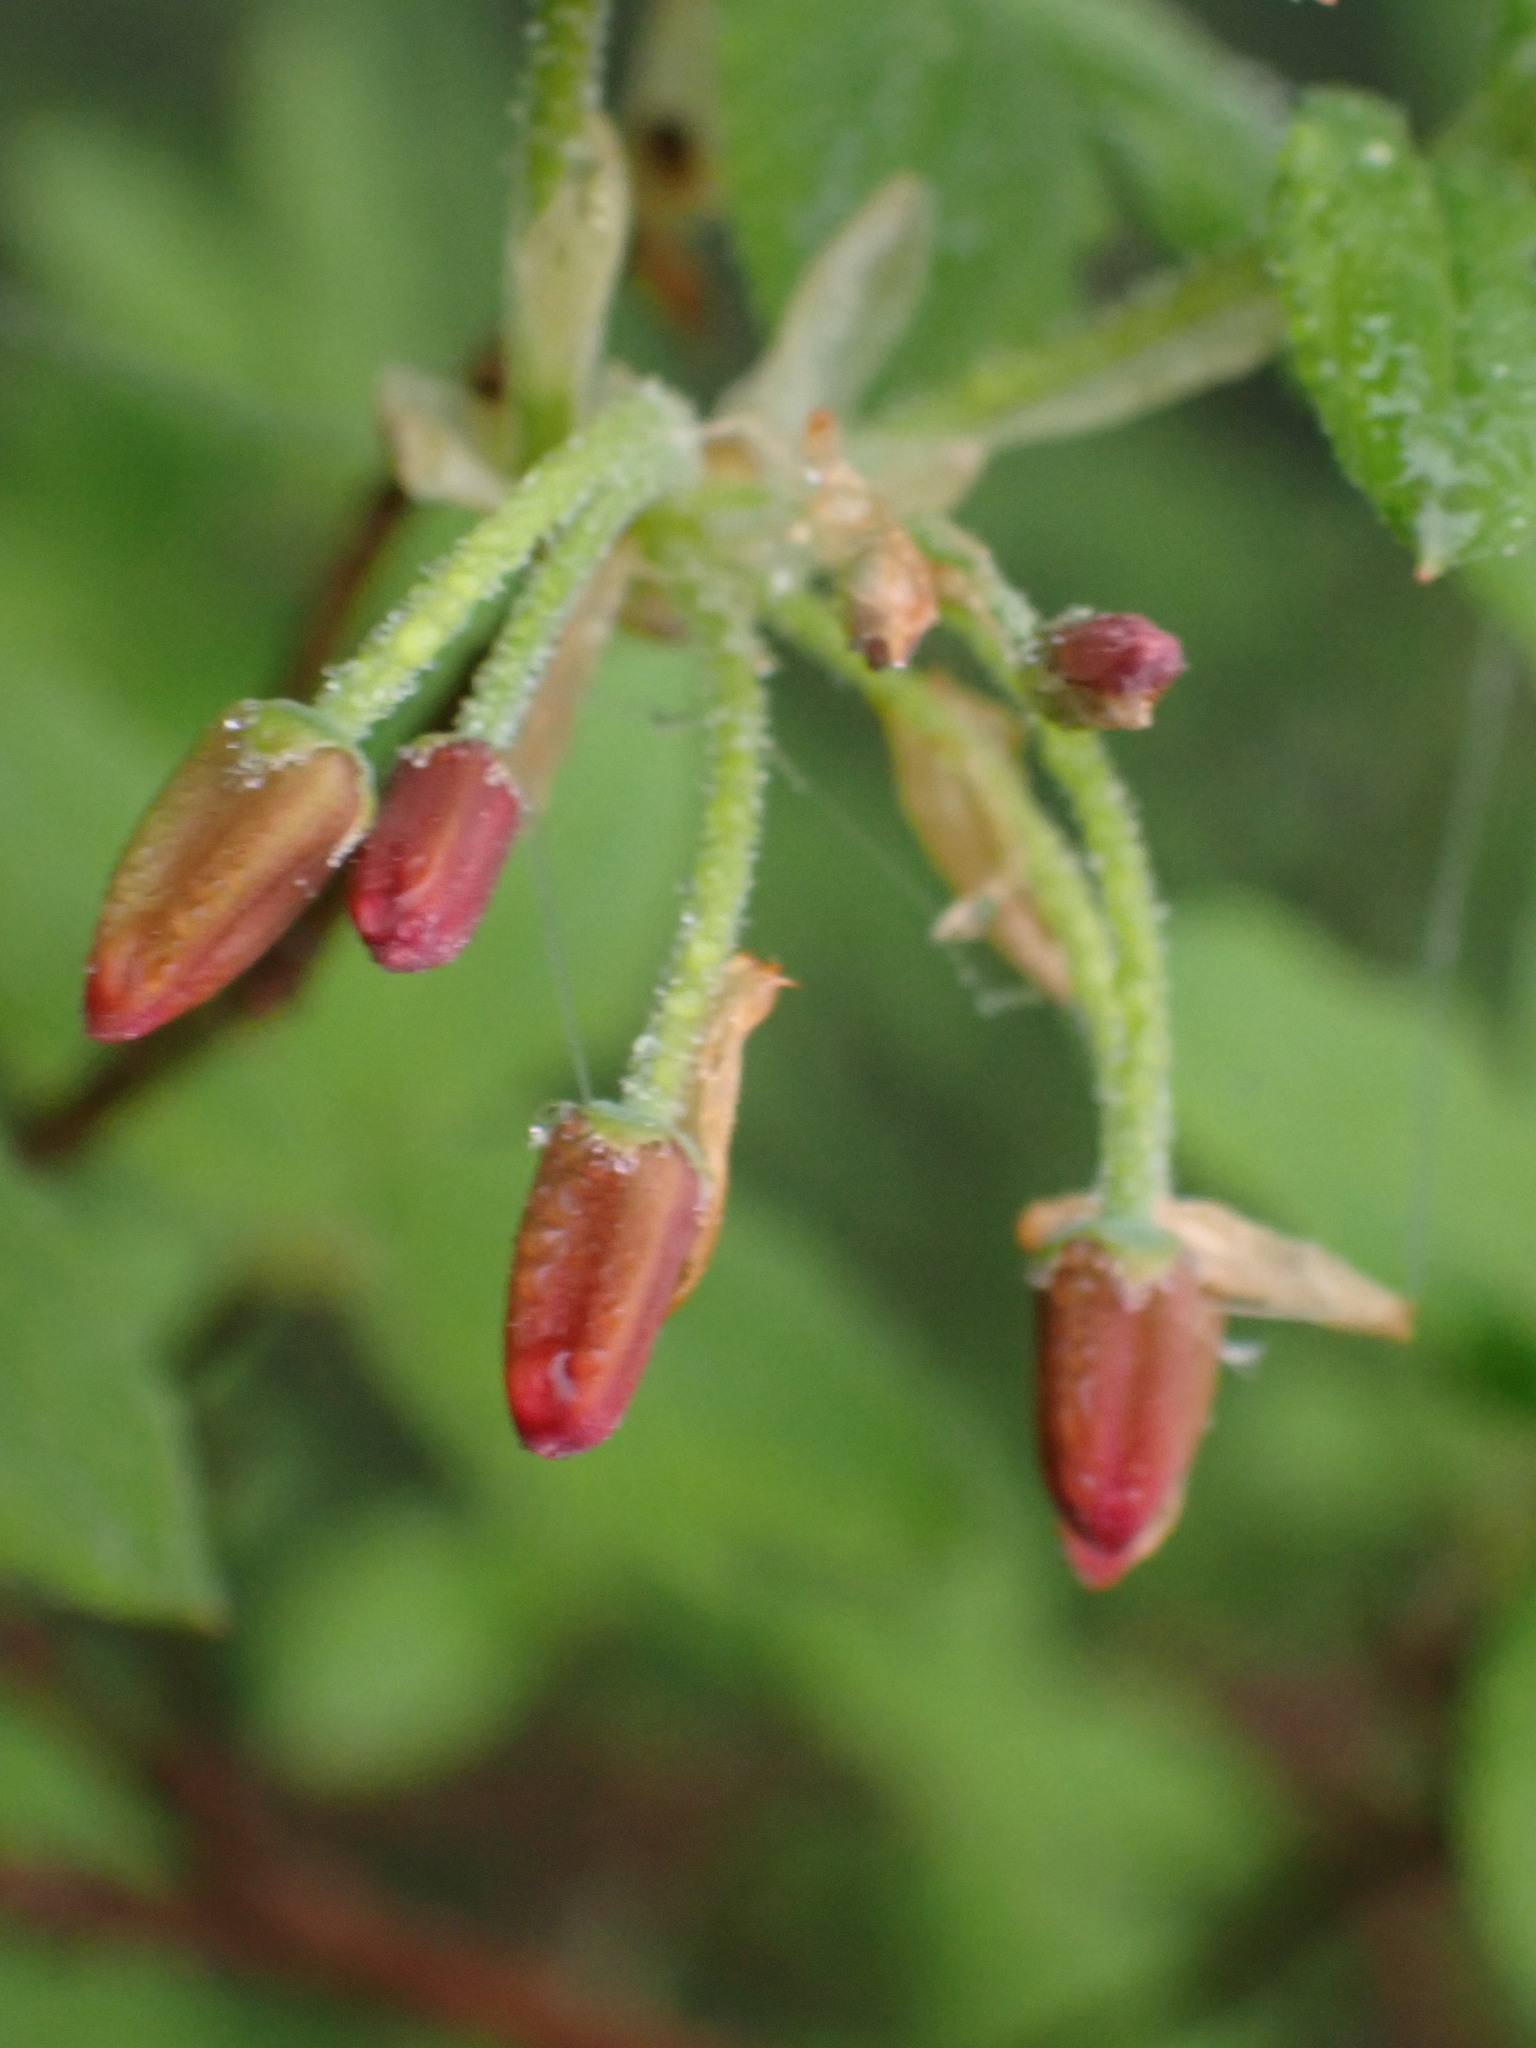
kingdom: Plantae
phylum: Tracheophyta
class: Magnoliopsida
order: Ericales
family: Ericaceae
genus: Rhododendron
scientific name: Rhododendron menziesii
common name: Pacific menziesia
